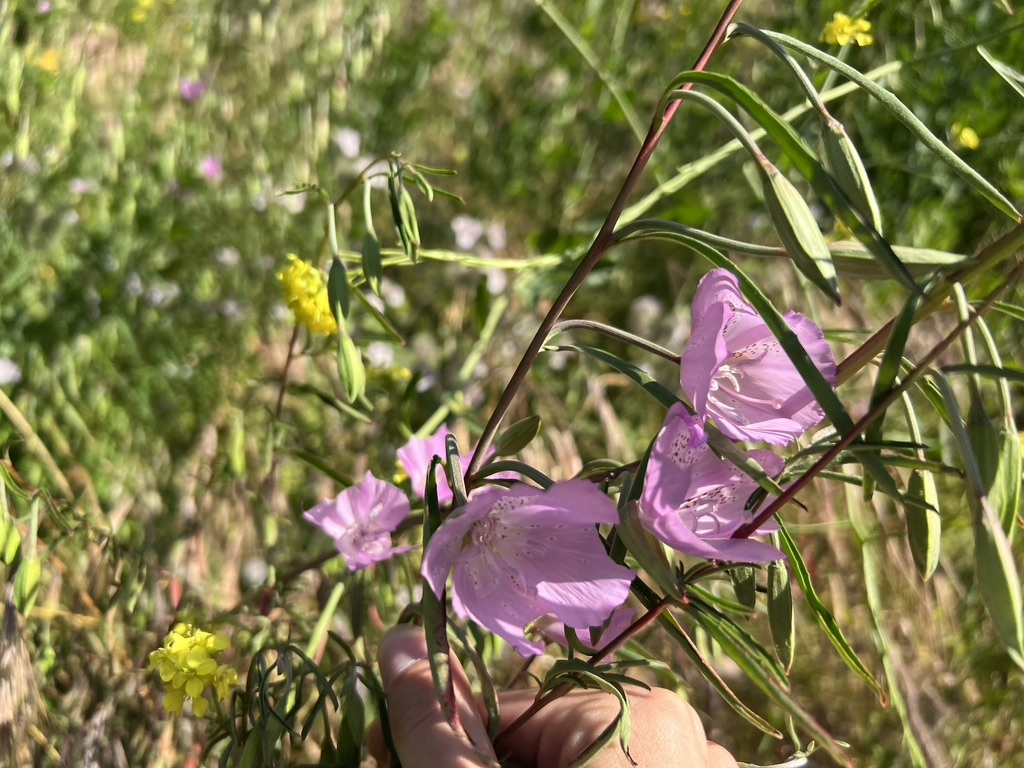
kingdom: Plantae
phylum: Tracheophyta
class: Magnoliopsida
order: Myrtales
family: Onagraceae
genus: Clarkia
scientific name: Clarkia bottae
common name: Punch-bowl godetia
